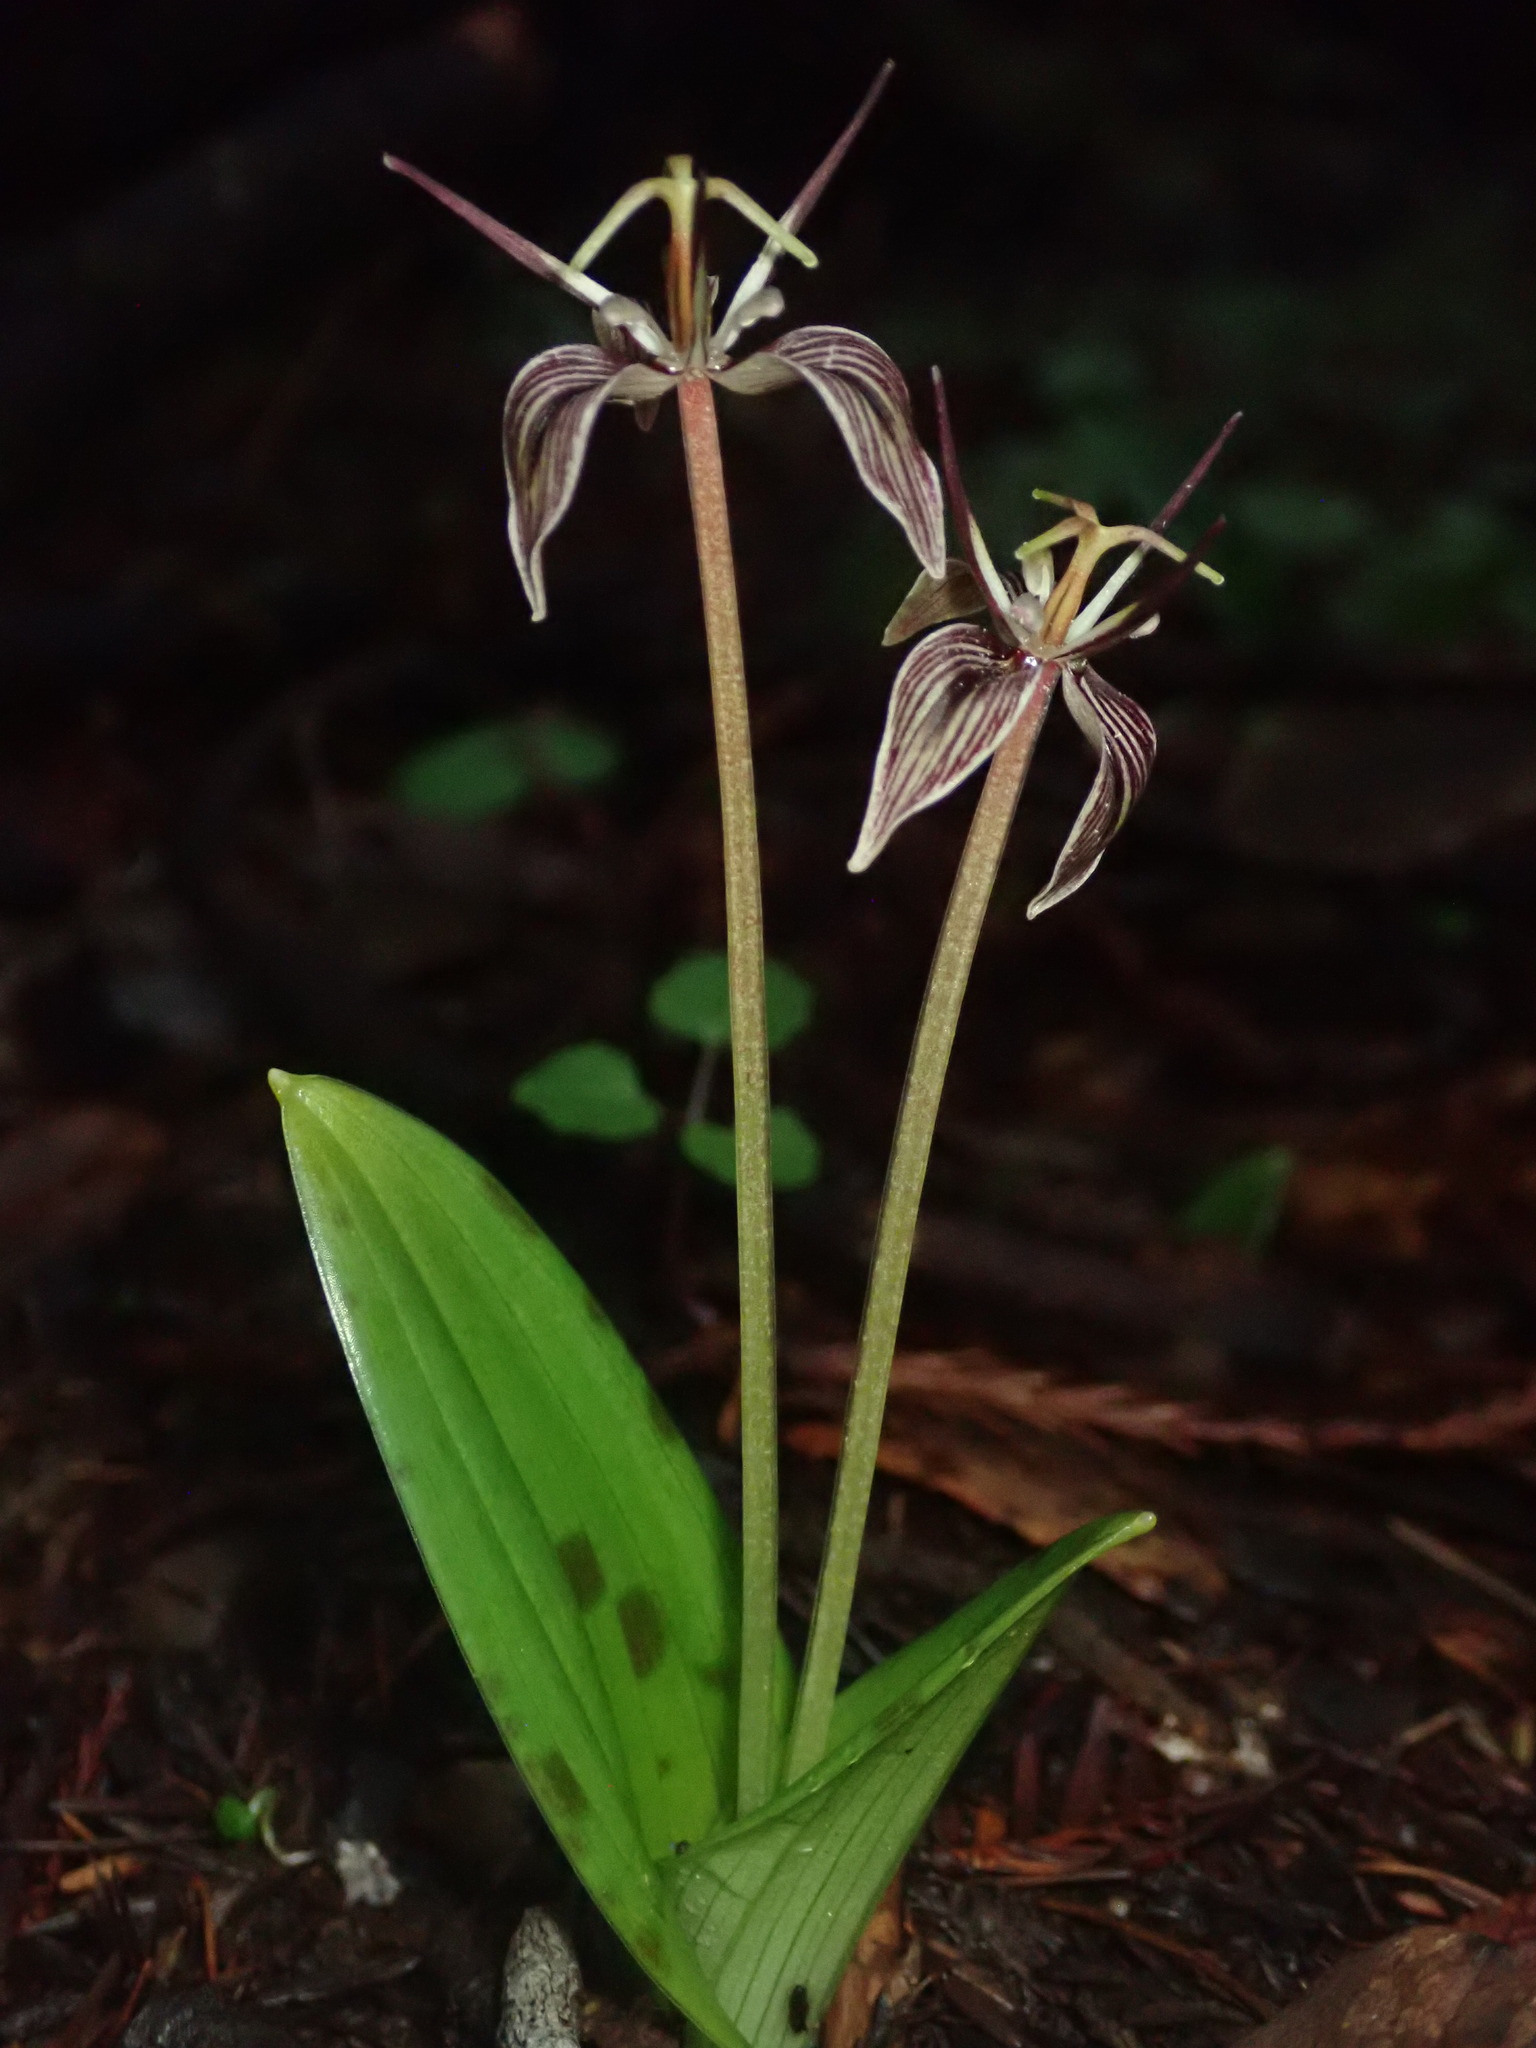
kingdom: Plantae
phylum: Tracheophyta
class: Liliopsida
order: Liliales
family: Liliaceae
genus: Scoliopus
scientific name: Scoliopus bigelovii
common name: Foetid adder's-tongue
